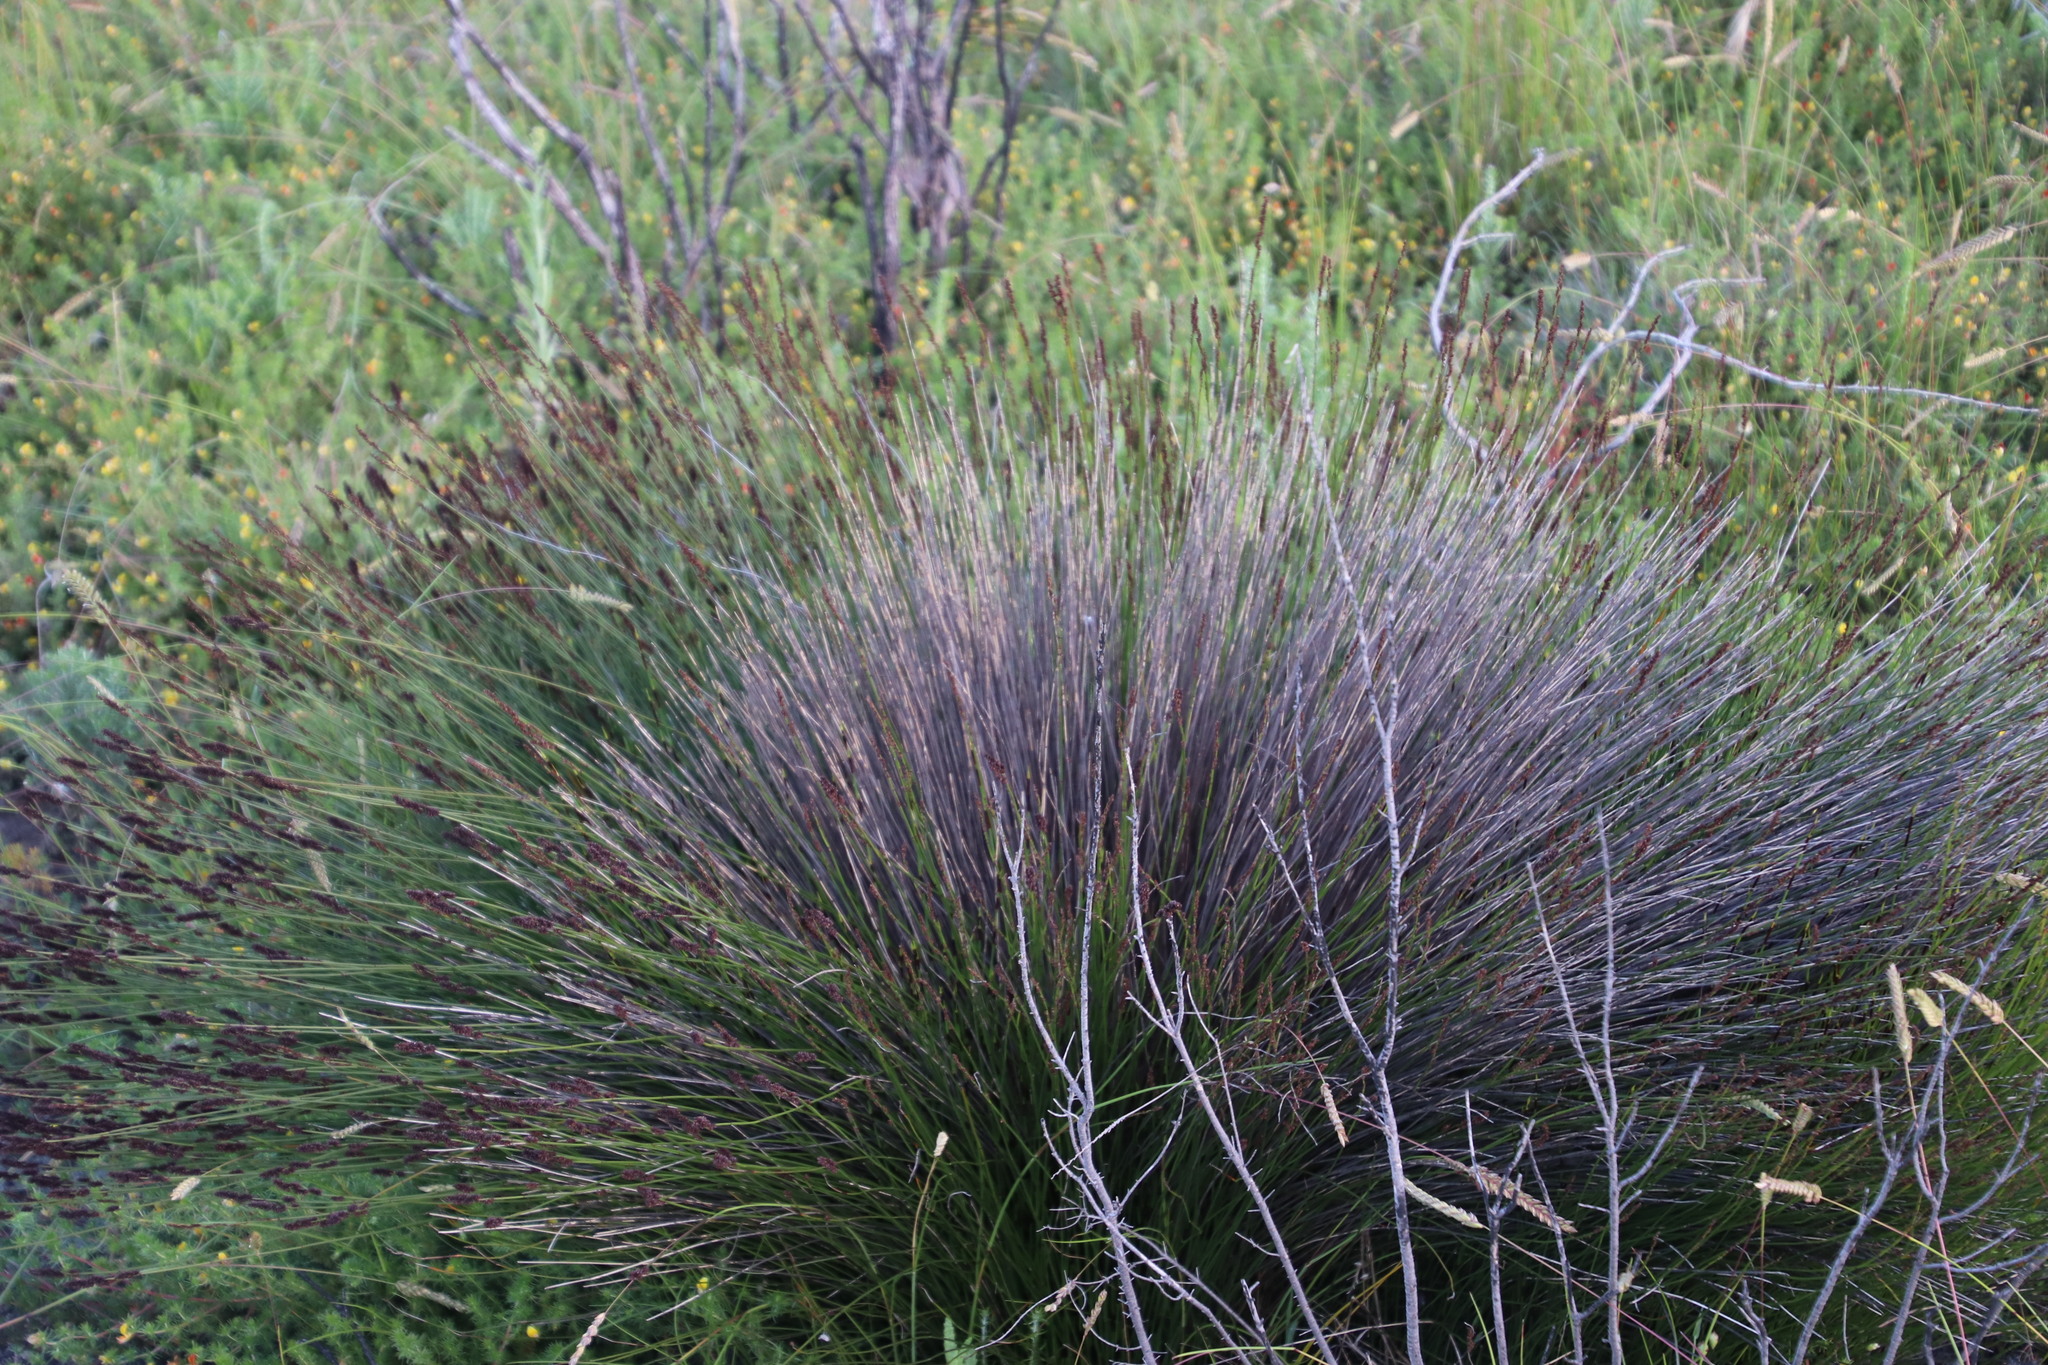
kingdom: Plantae
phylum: Tracheophyta
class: Liliopsida
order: Poales
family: Restionaceae
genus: Elegia
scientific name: Elegia tectorum
